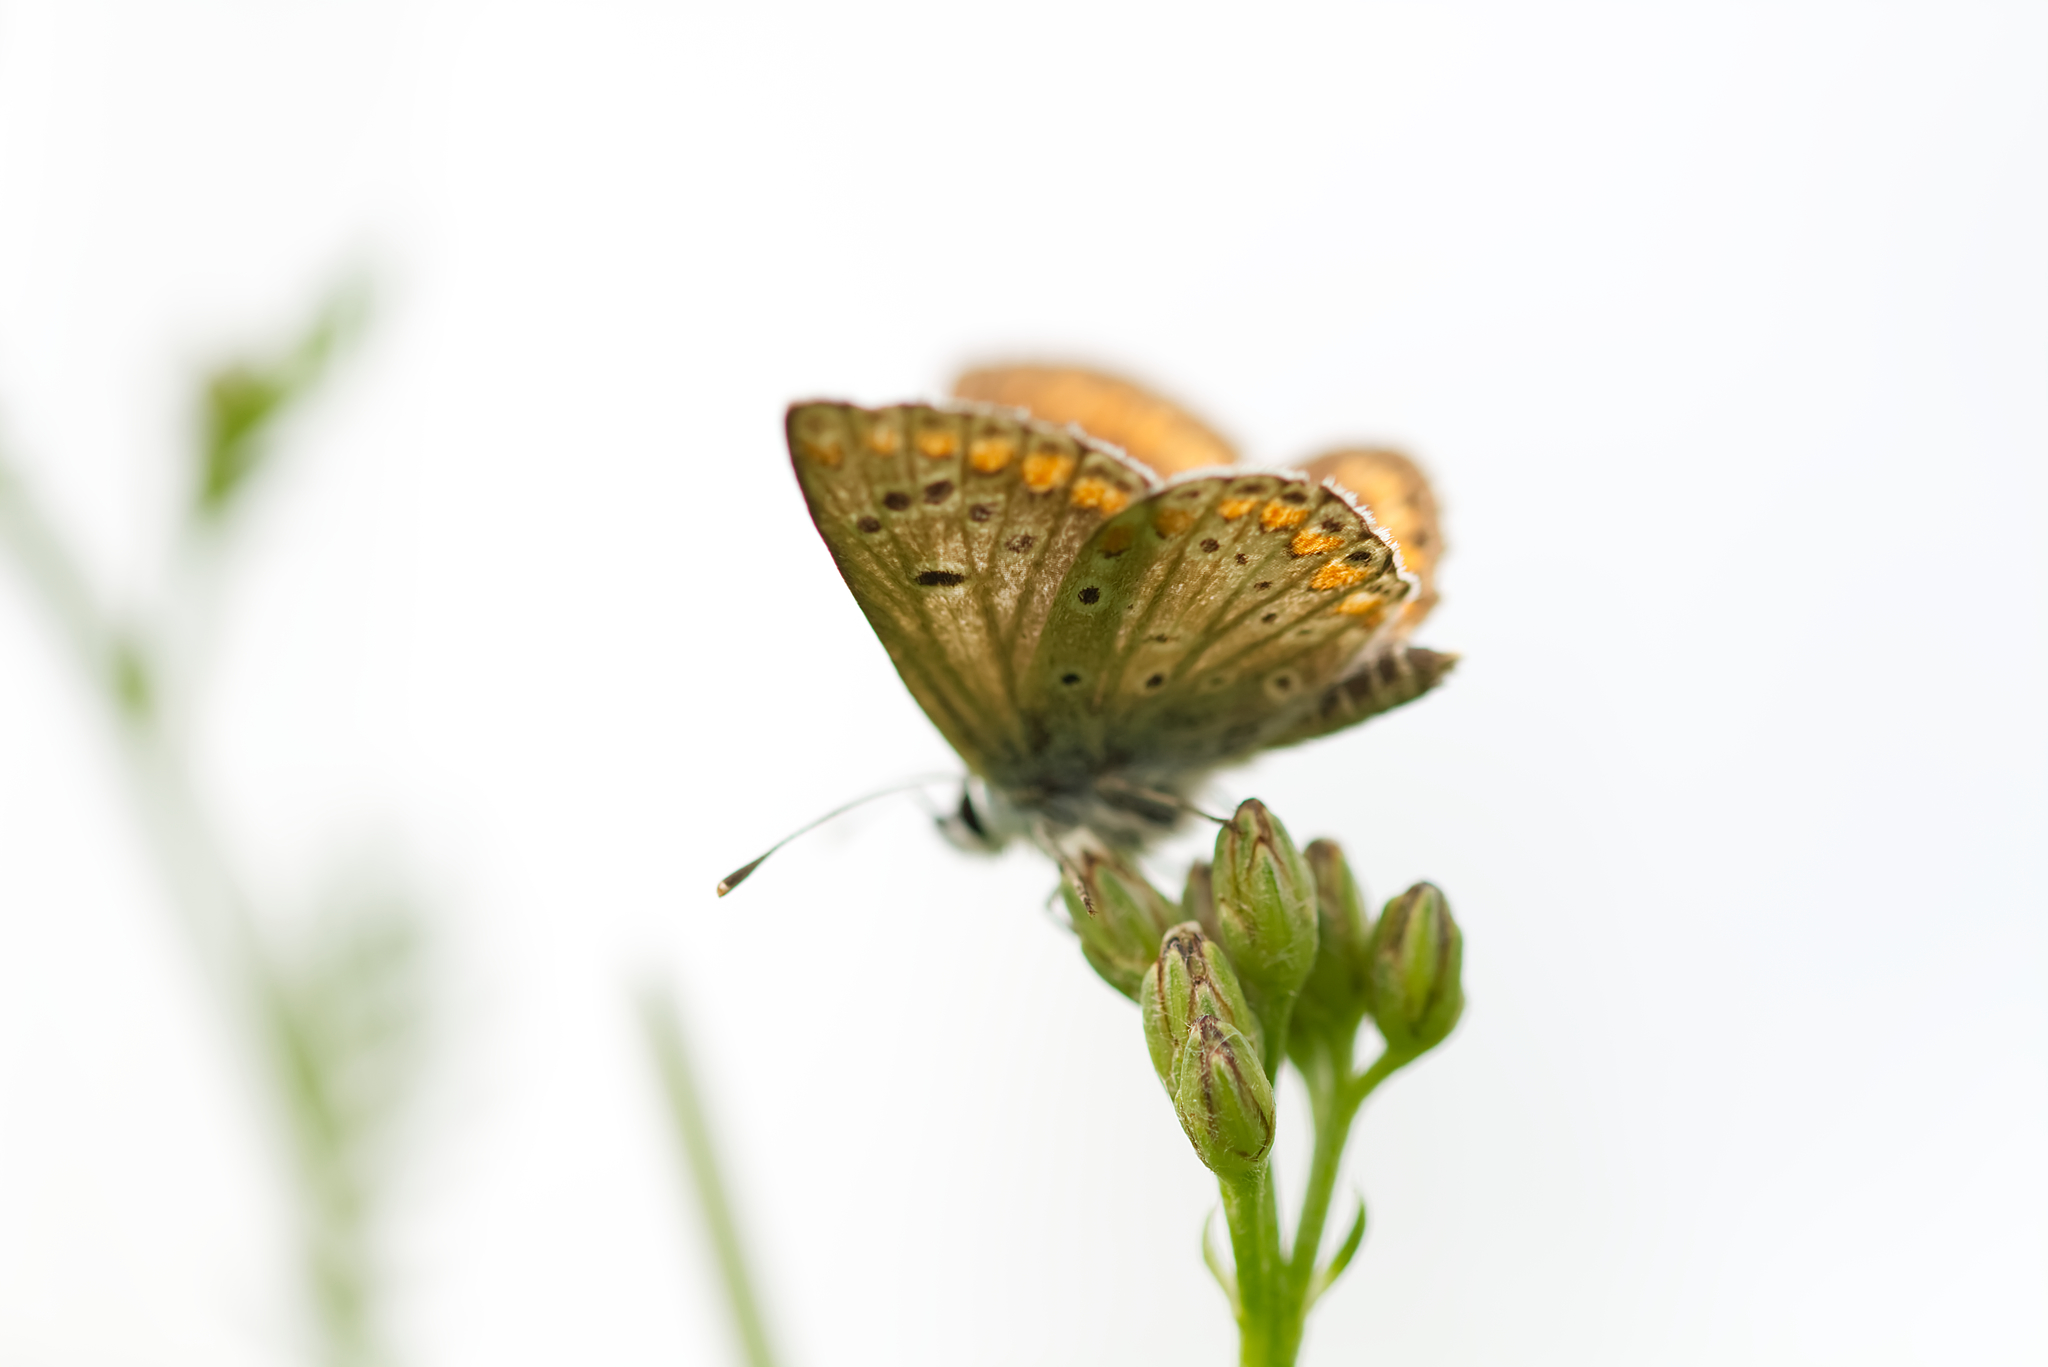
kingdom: Animalia
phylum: Arthropoda
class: Insecta
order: Lepidoptera
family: Lycaenidae
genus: Aricia
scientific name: Aricia agestis
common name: Brown argus
